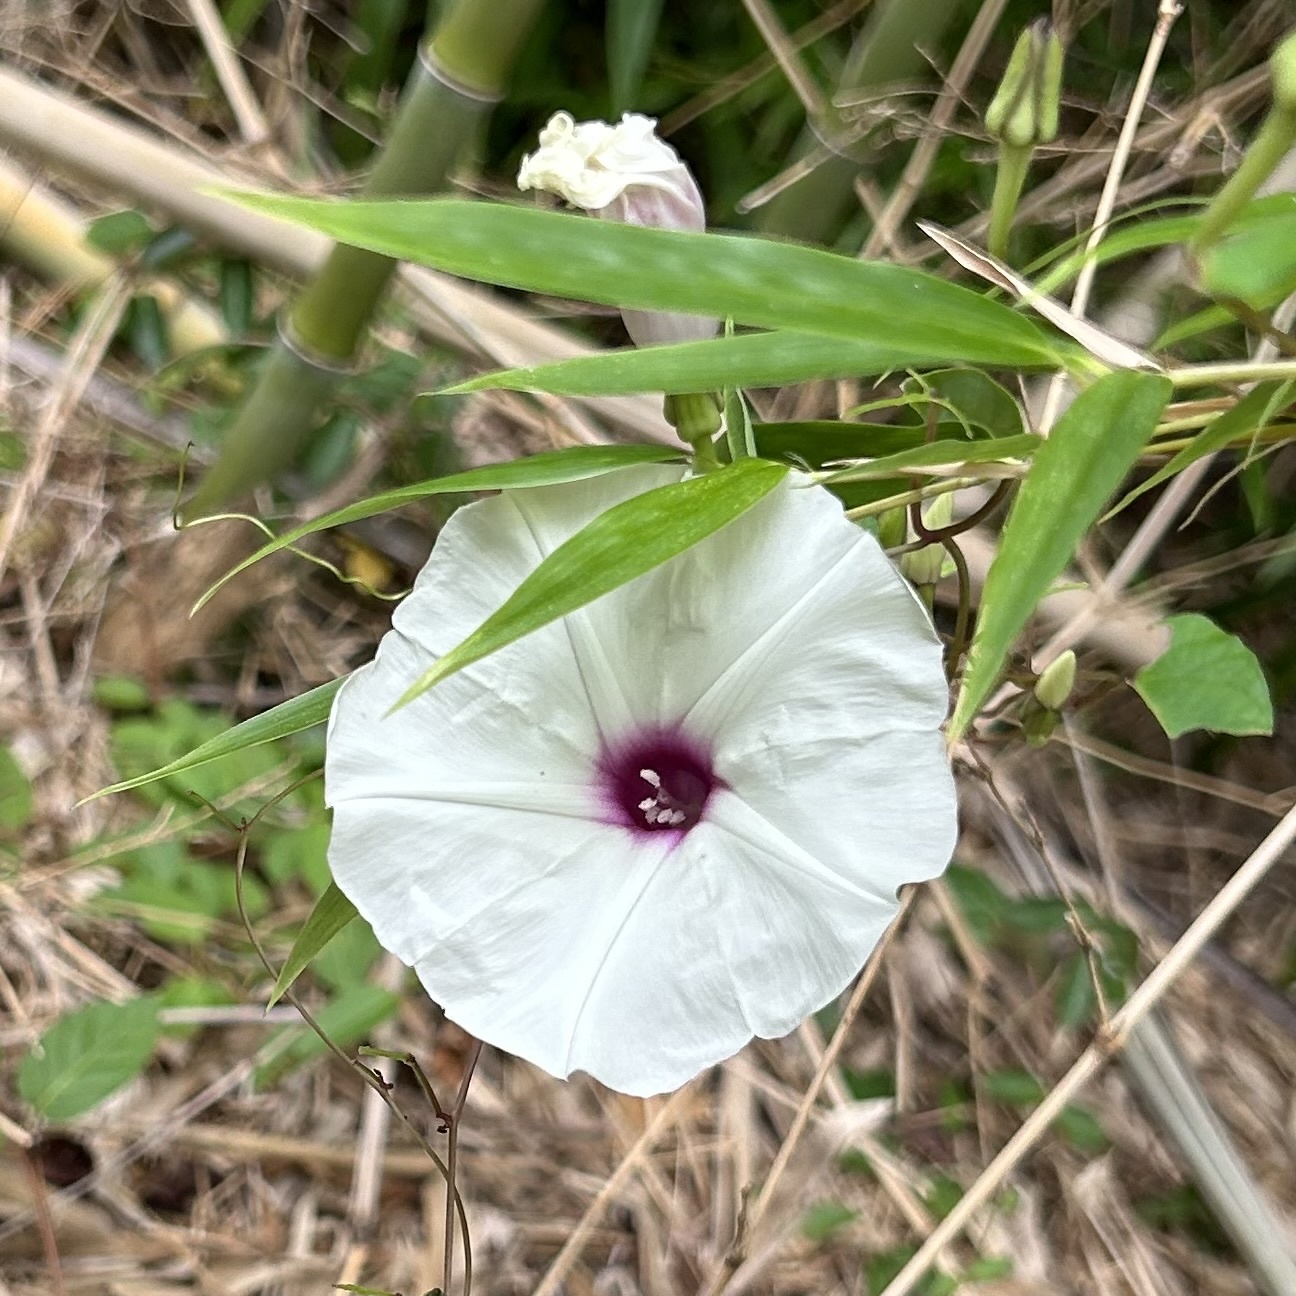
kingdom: Plantae
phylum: Tracheophyta
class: Magnoliopsida
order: Solanales
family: Convolvulaceae
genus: Ipomoea
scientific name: Ipomoea pandurata
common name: Man-of-the-earth
